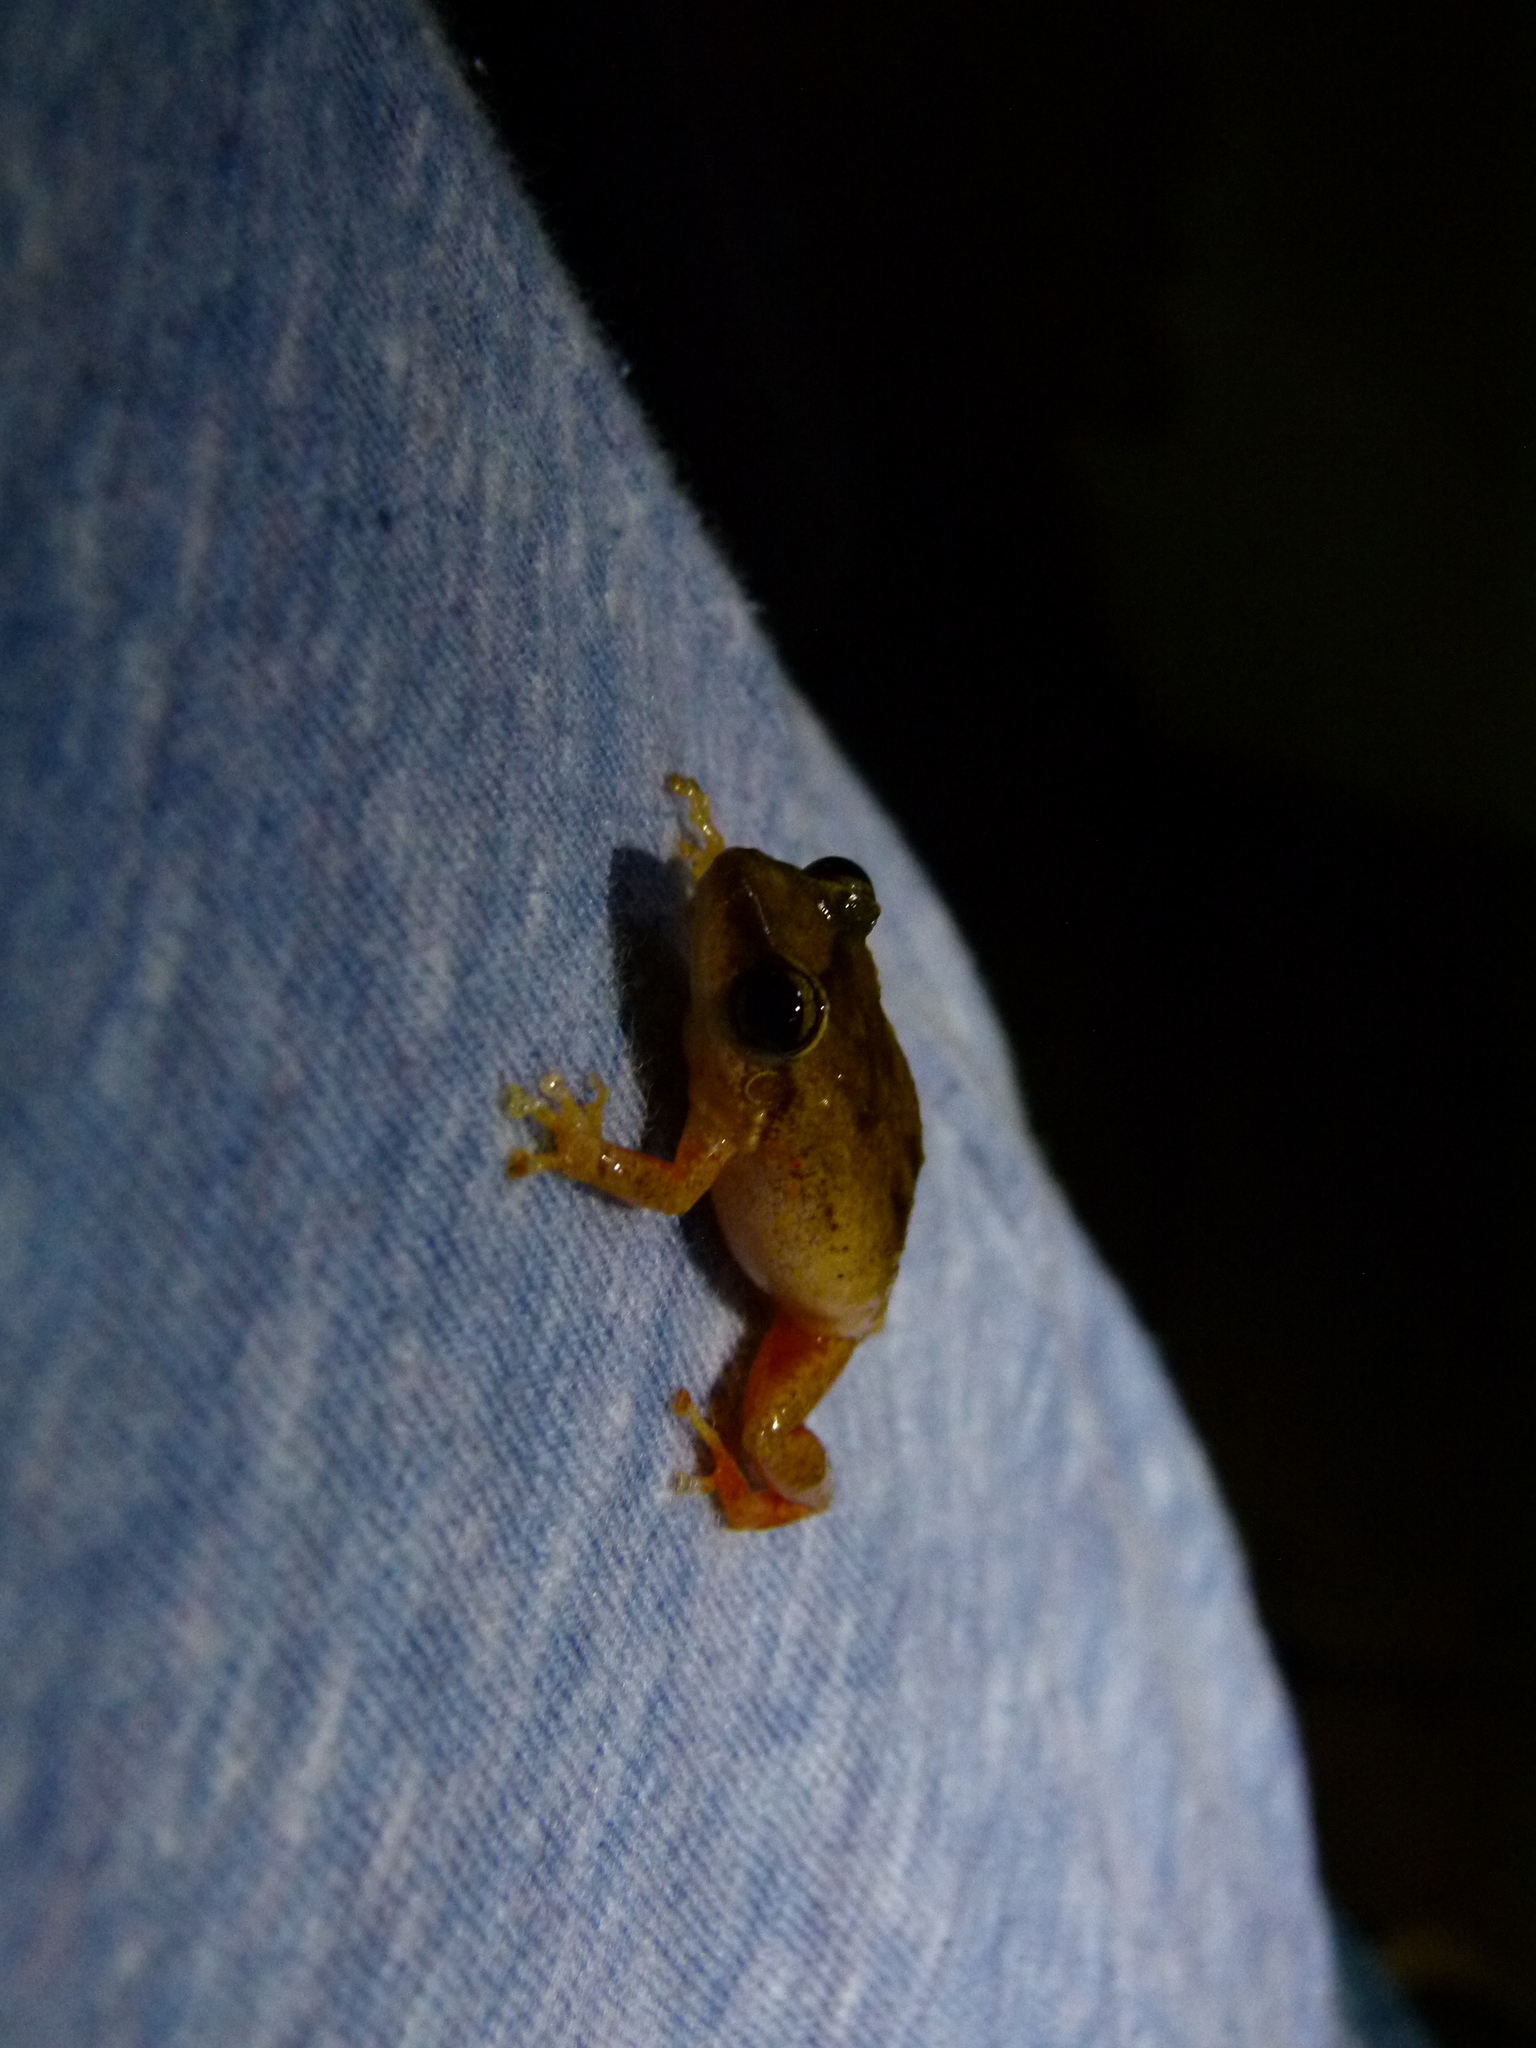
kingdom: Animalia
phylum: Chordata
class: Amphibia
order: Anura
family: Eleutherodactylidae
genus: Eleutherodactylus
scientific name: Eleutherodactylus coqui
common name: Coqui frog
